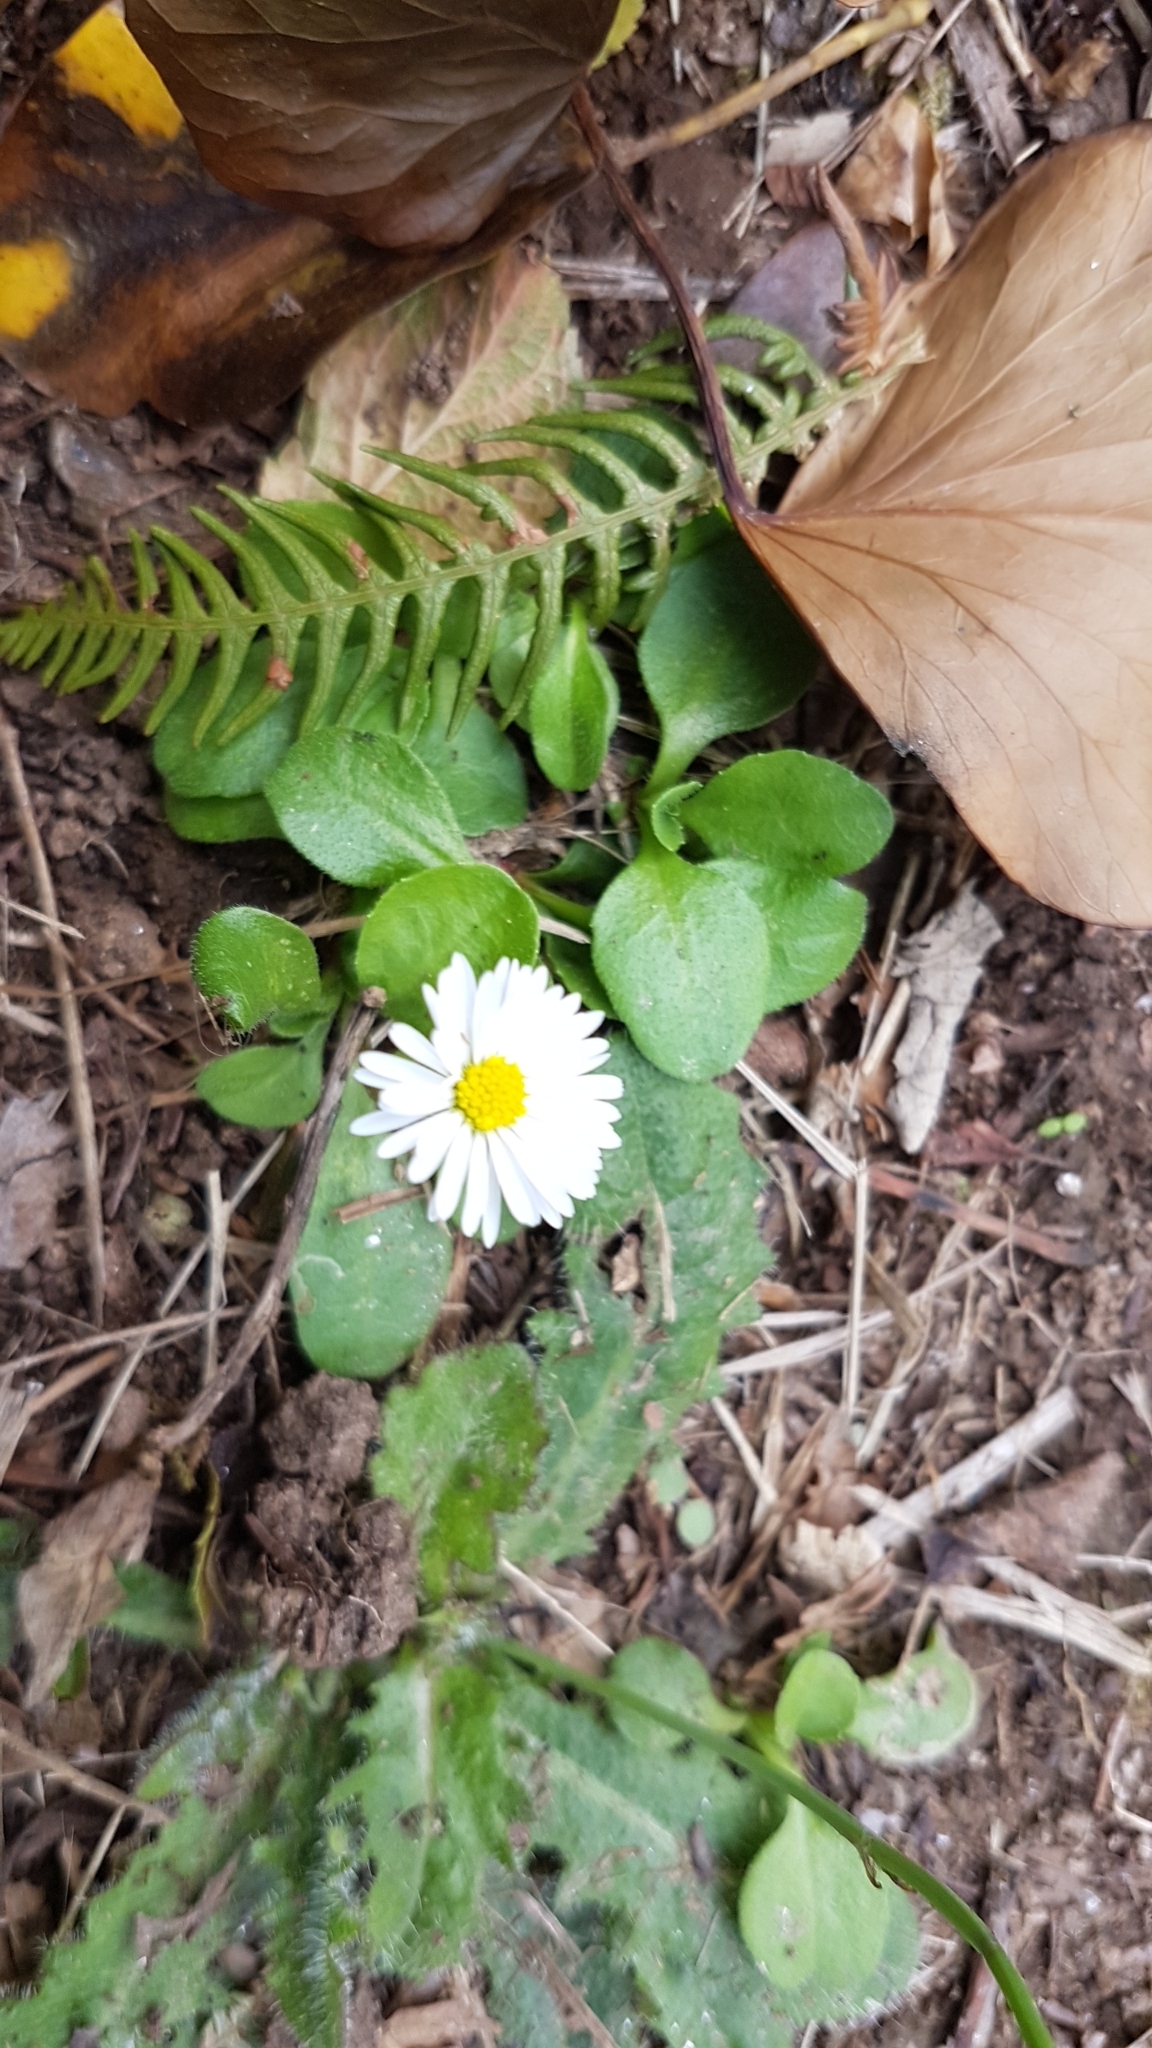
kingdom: Plantae
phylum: Tracheophyta
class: Magnoliopsida
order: Asterales
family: Asteraceae
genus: Bellis
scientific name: Bellis perennis
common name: Lawndaisy
